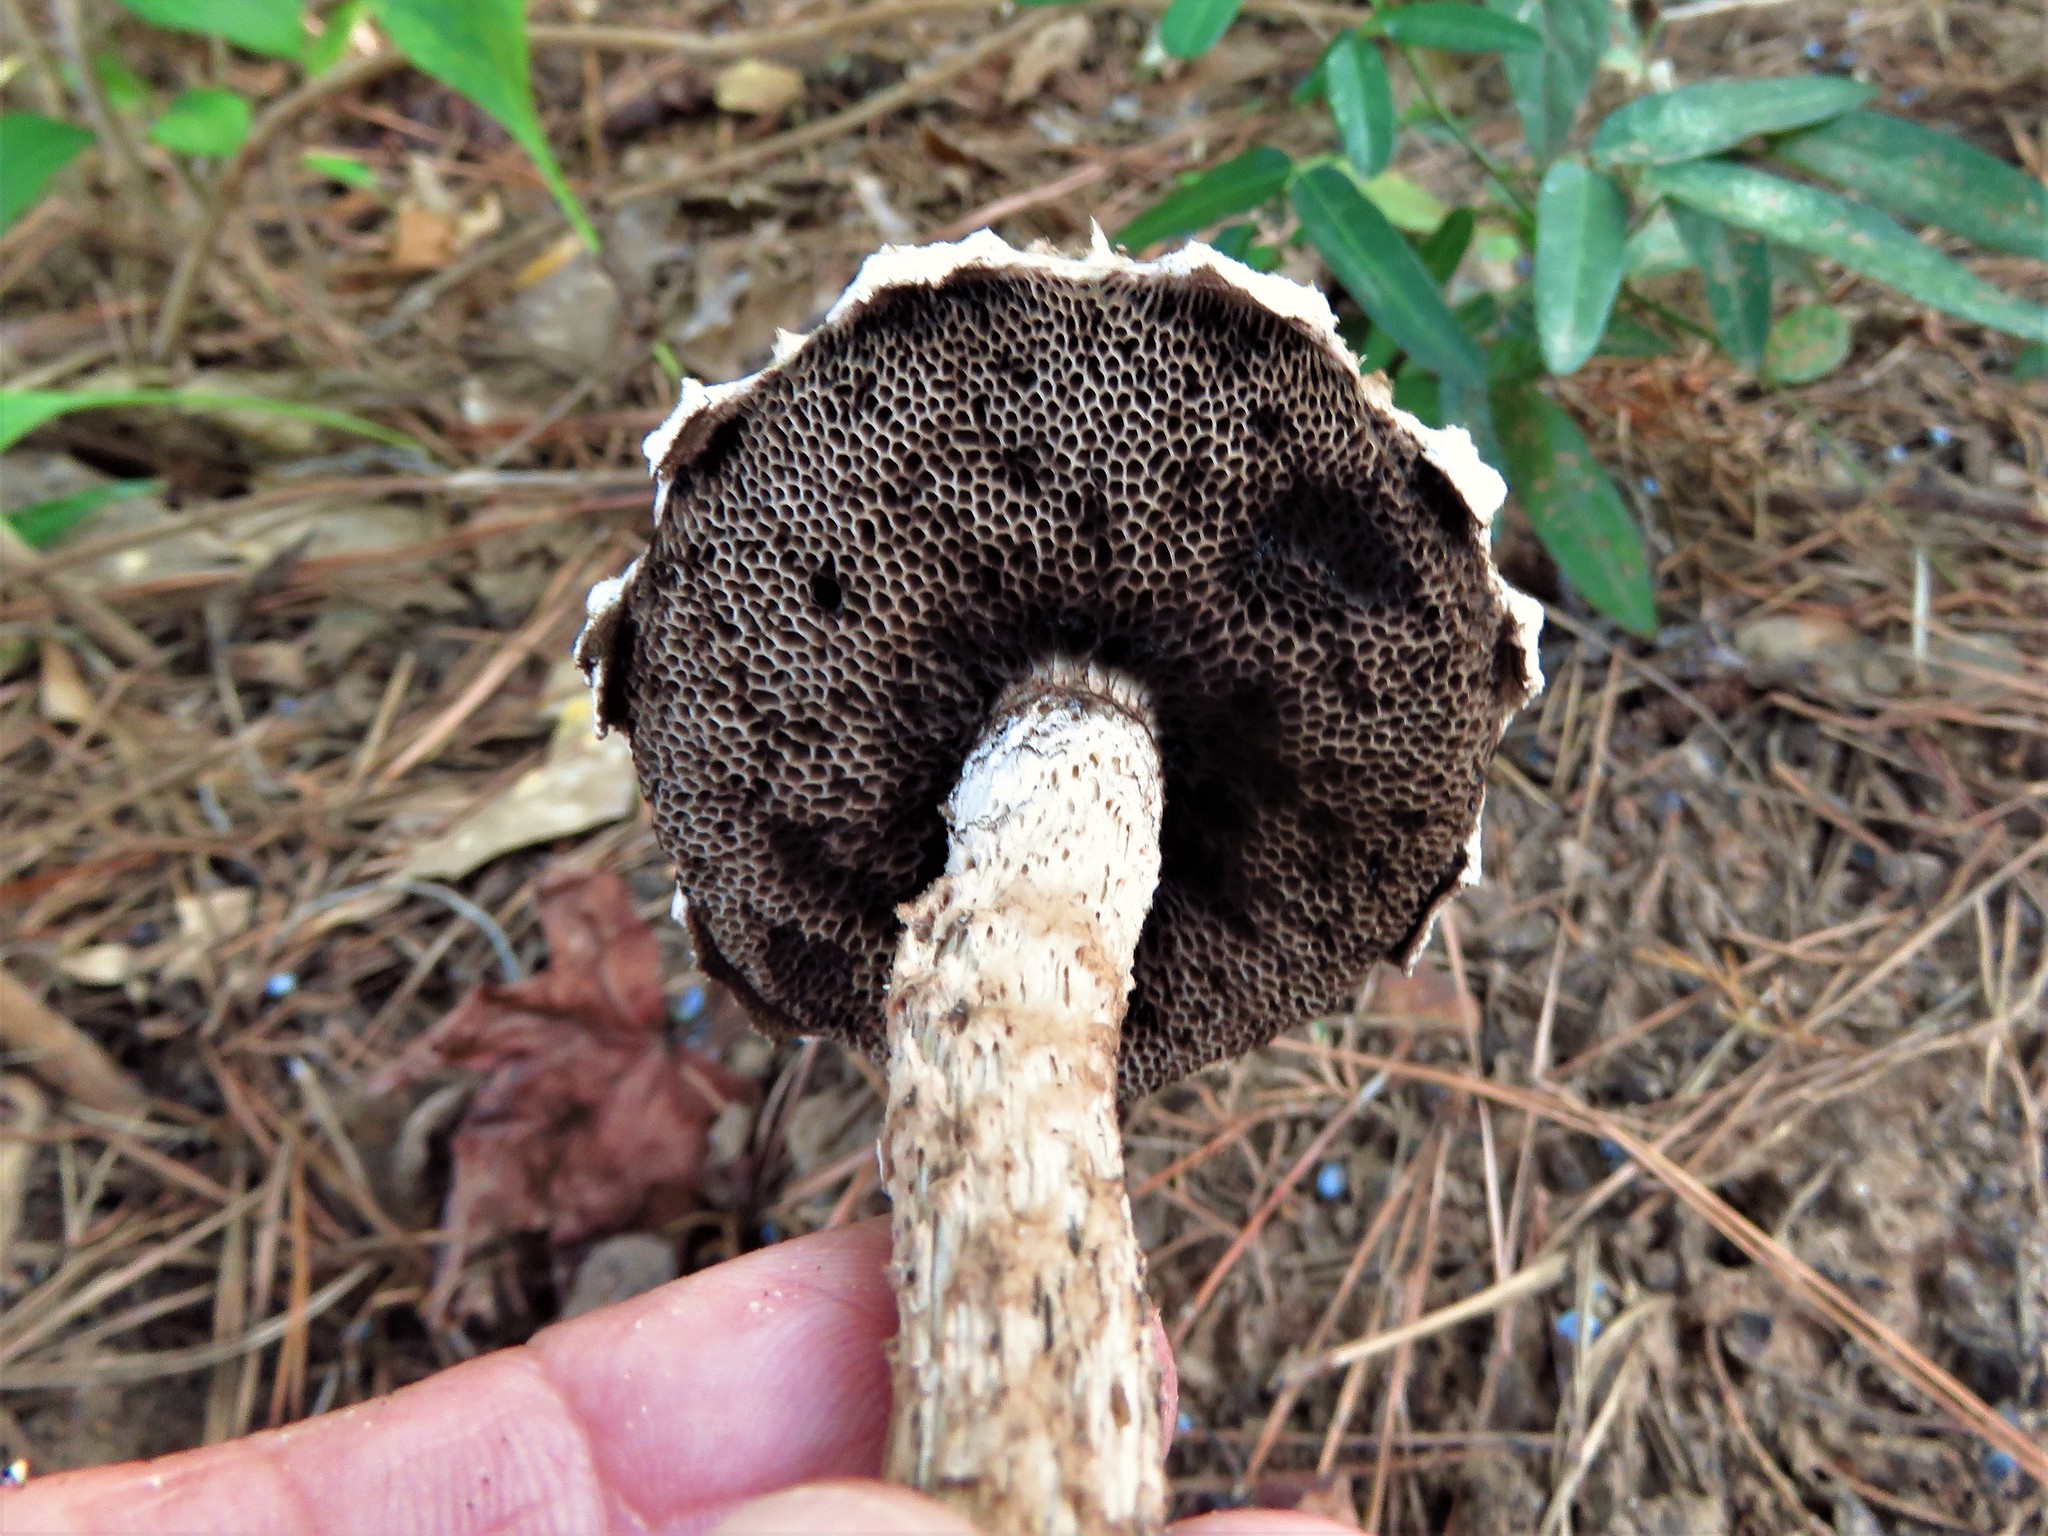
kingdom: Fungi
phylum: Basidiomycota
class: Agaricomycetes
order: Boletales
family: Boletaceae
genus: Strobilomyces
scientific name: Strobilomyces strobilaceus
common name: Old man of the woods
